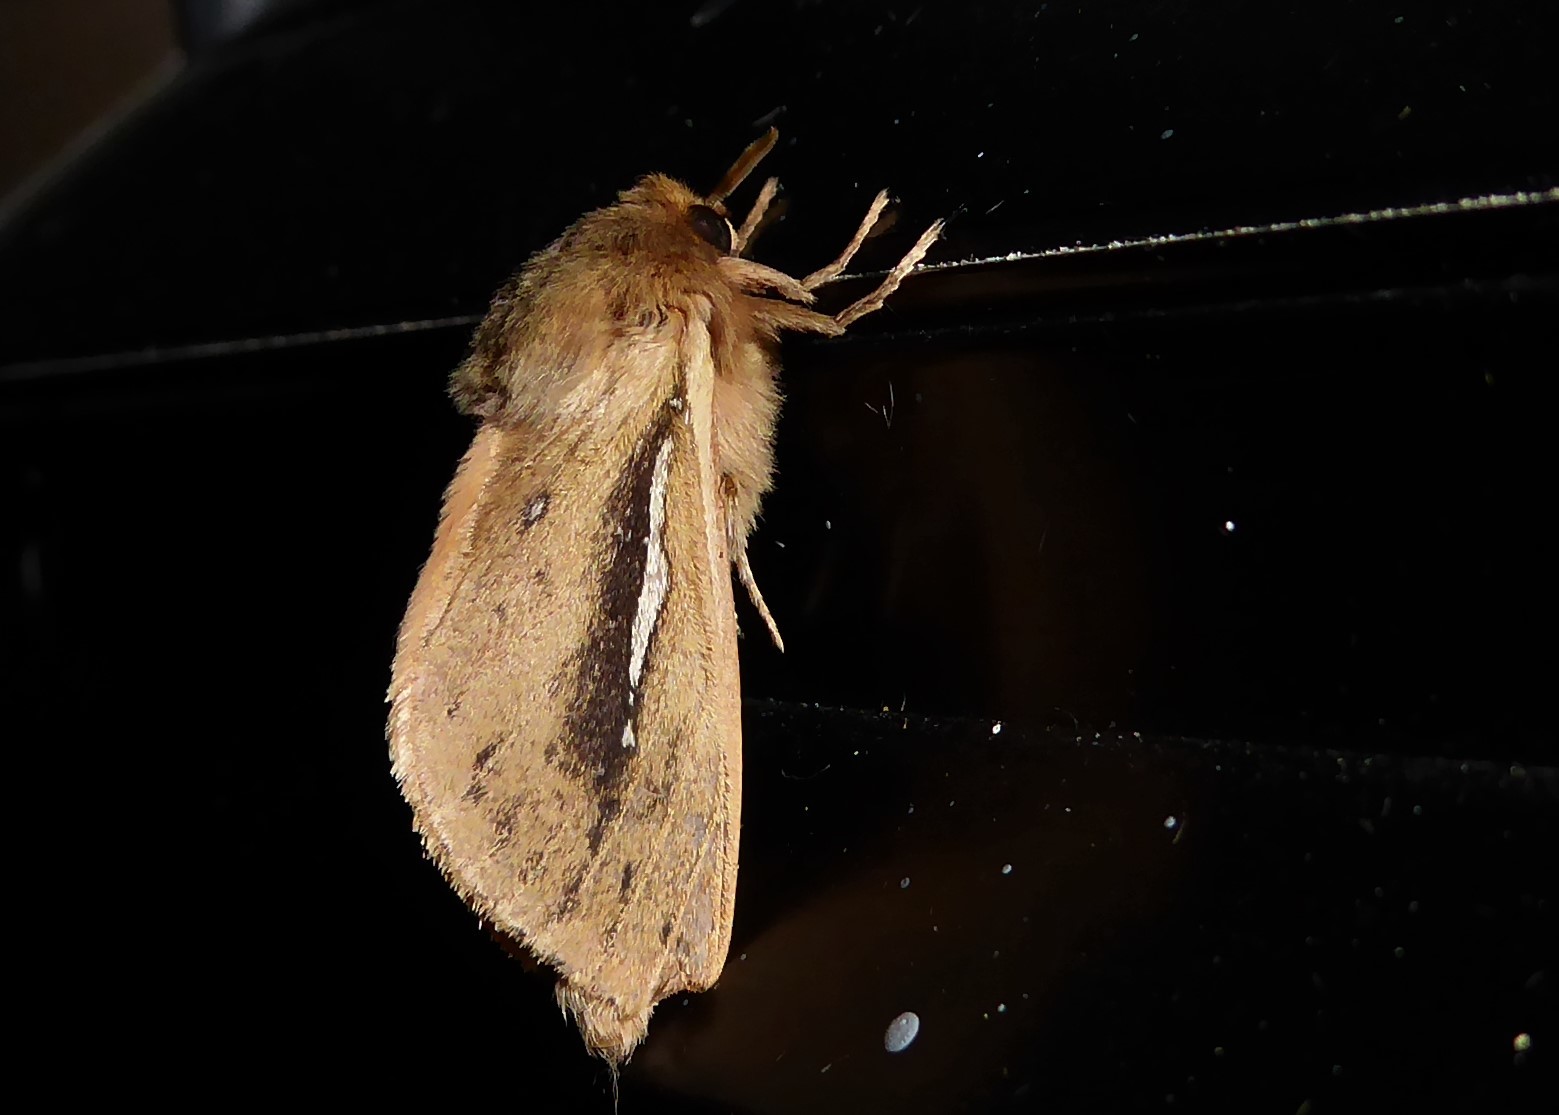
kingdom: Animalia
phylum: Arthropoda
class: Insecta
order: Lepidoptera
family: Hepialidae
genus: Wiseana
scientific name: Wiseana umbraculatus
